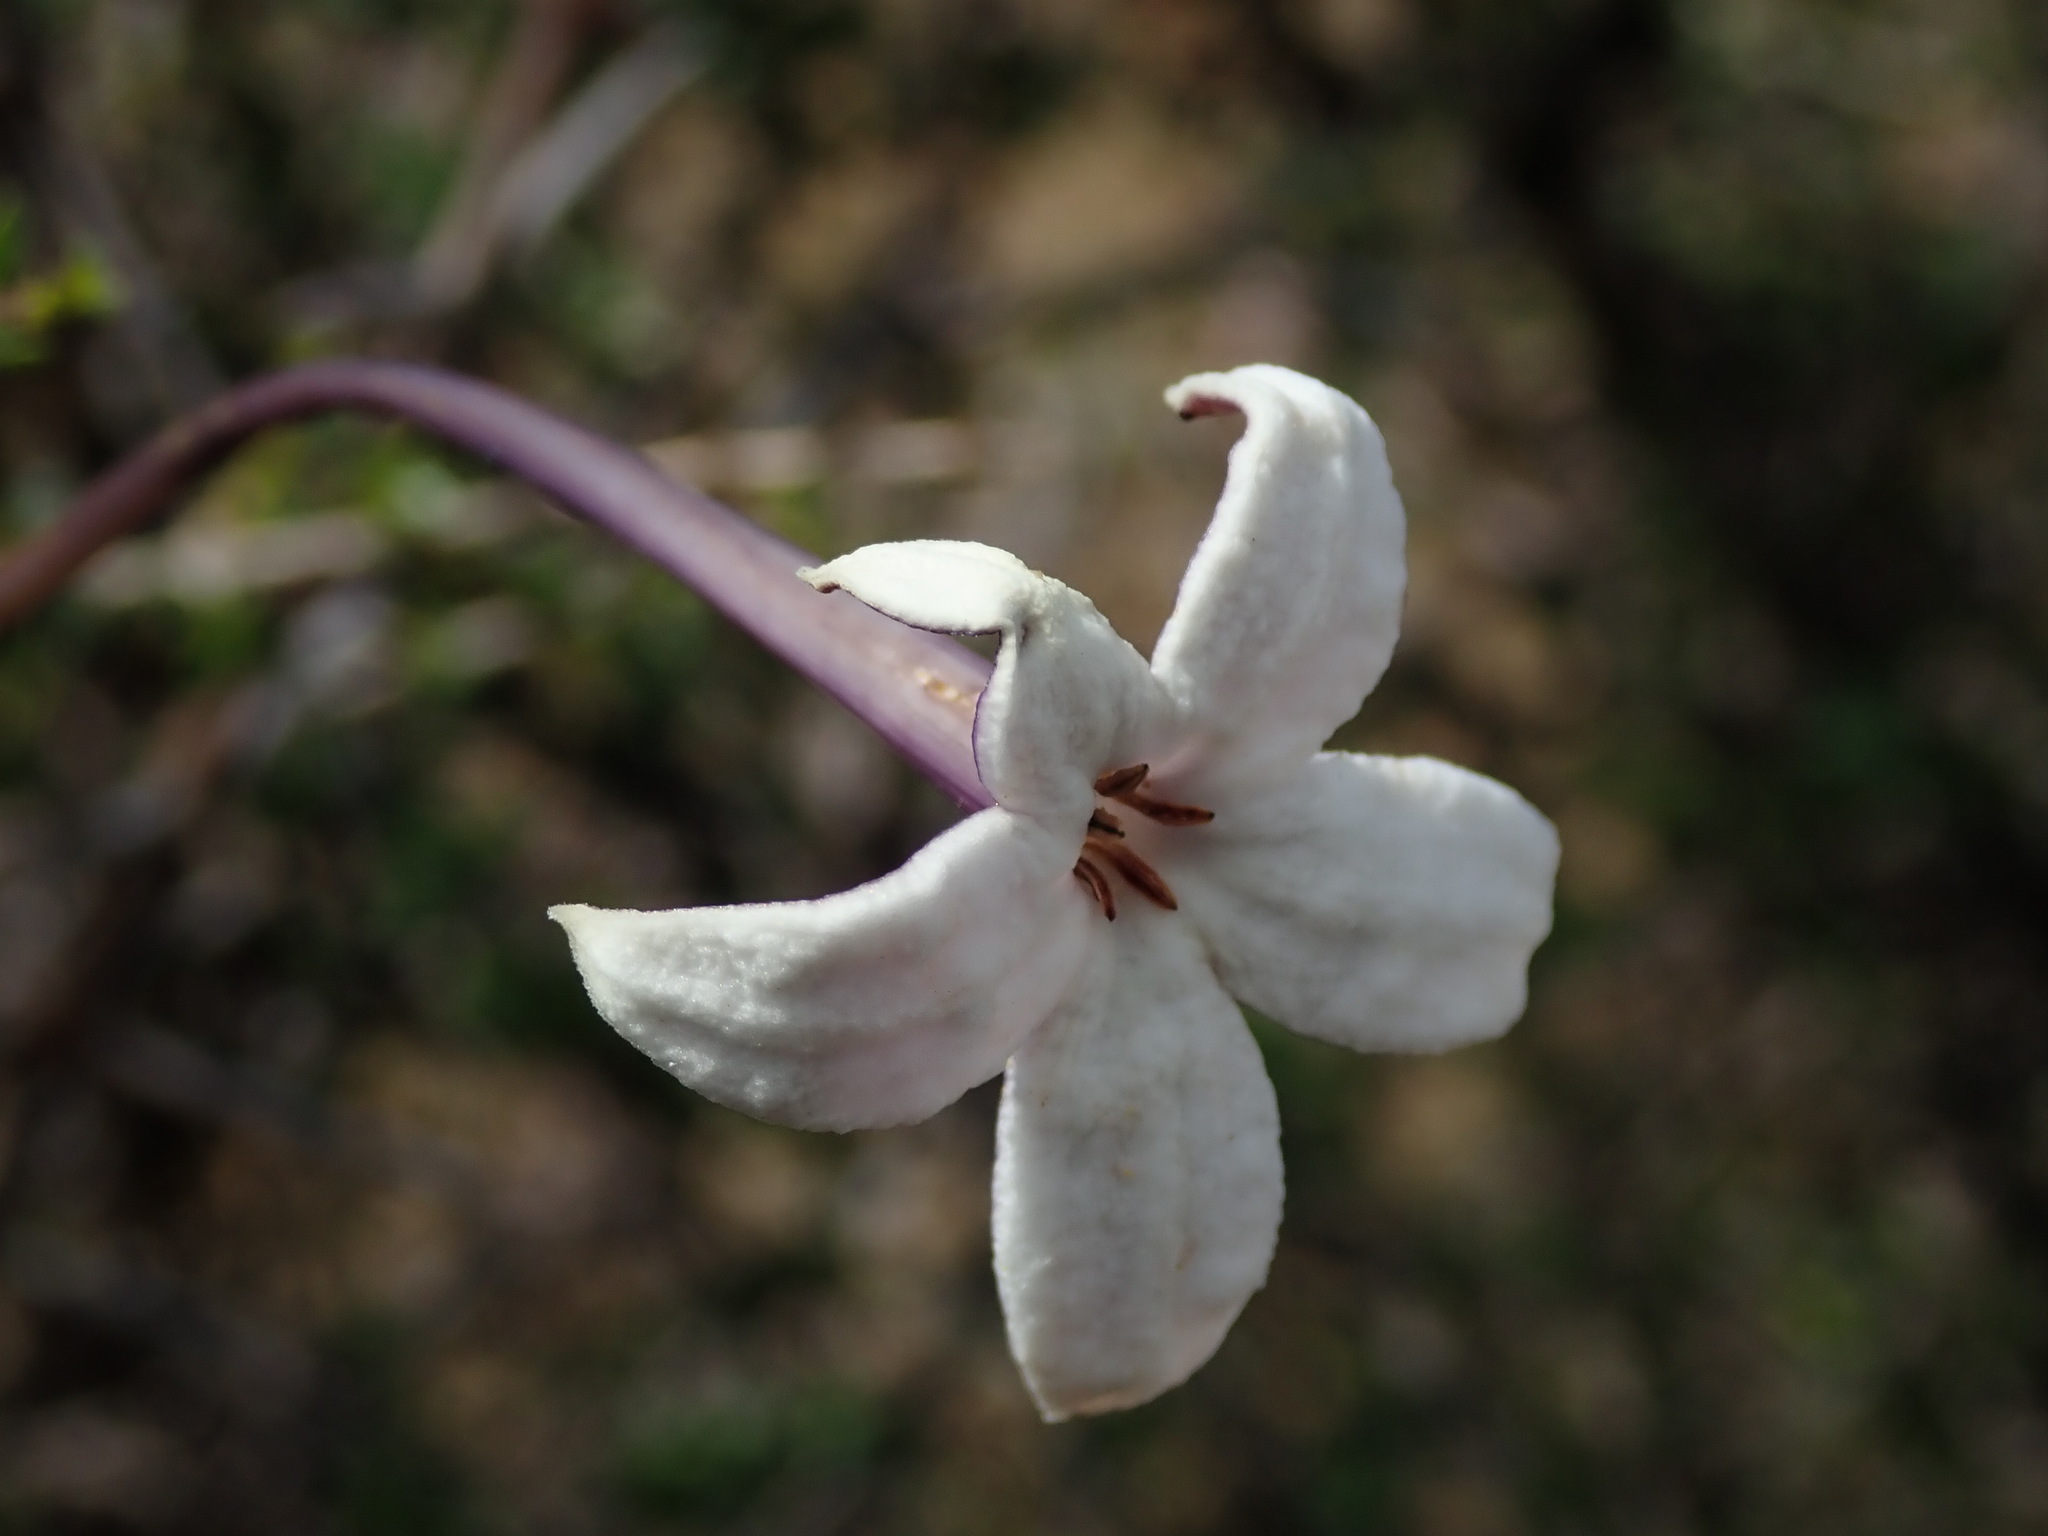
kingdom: Plantae
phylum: Tracheophyta
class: Magnoliopsida
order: Gentianales
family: Rubiaceae
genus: Heterophyllaea
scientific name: Heterophyllaea lycioides
